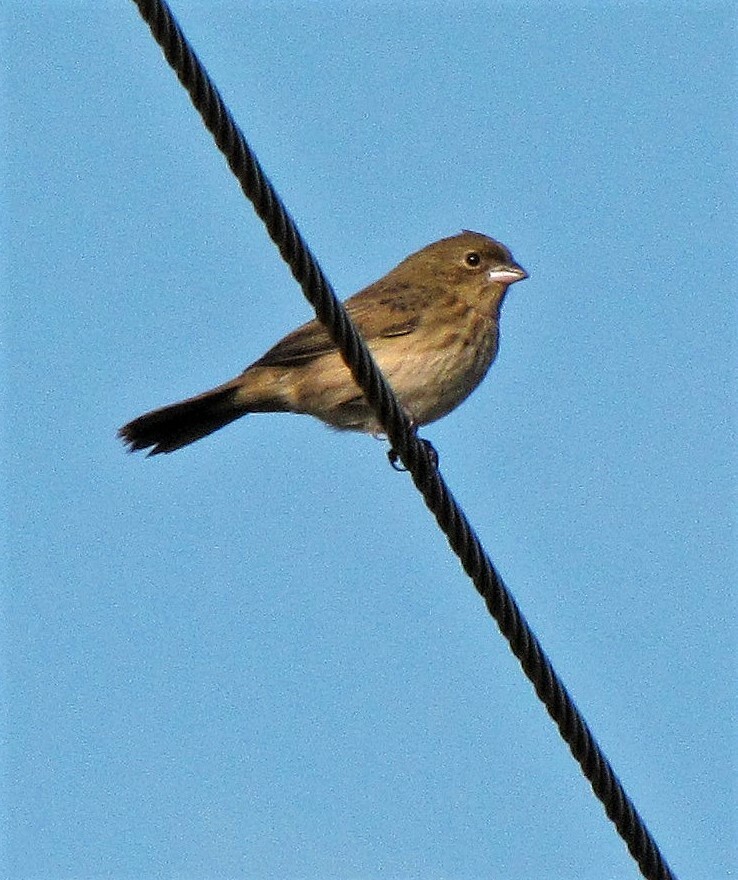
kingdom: Animalia
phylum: Chordata
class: Aves
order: Passeriformes
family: Thraupidae
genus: Volatinia
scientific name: Volatinia jacarina
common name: Blue-black grassquit
